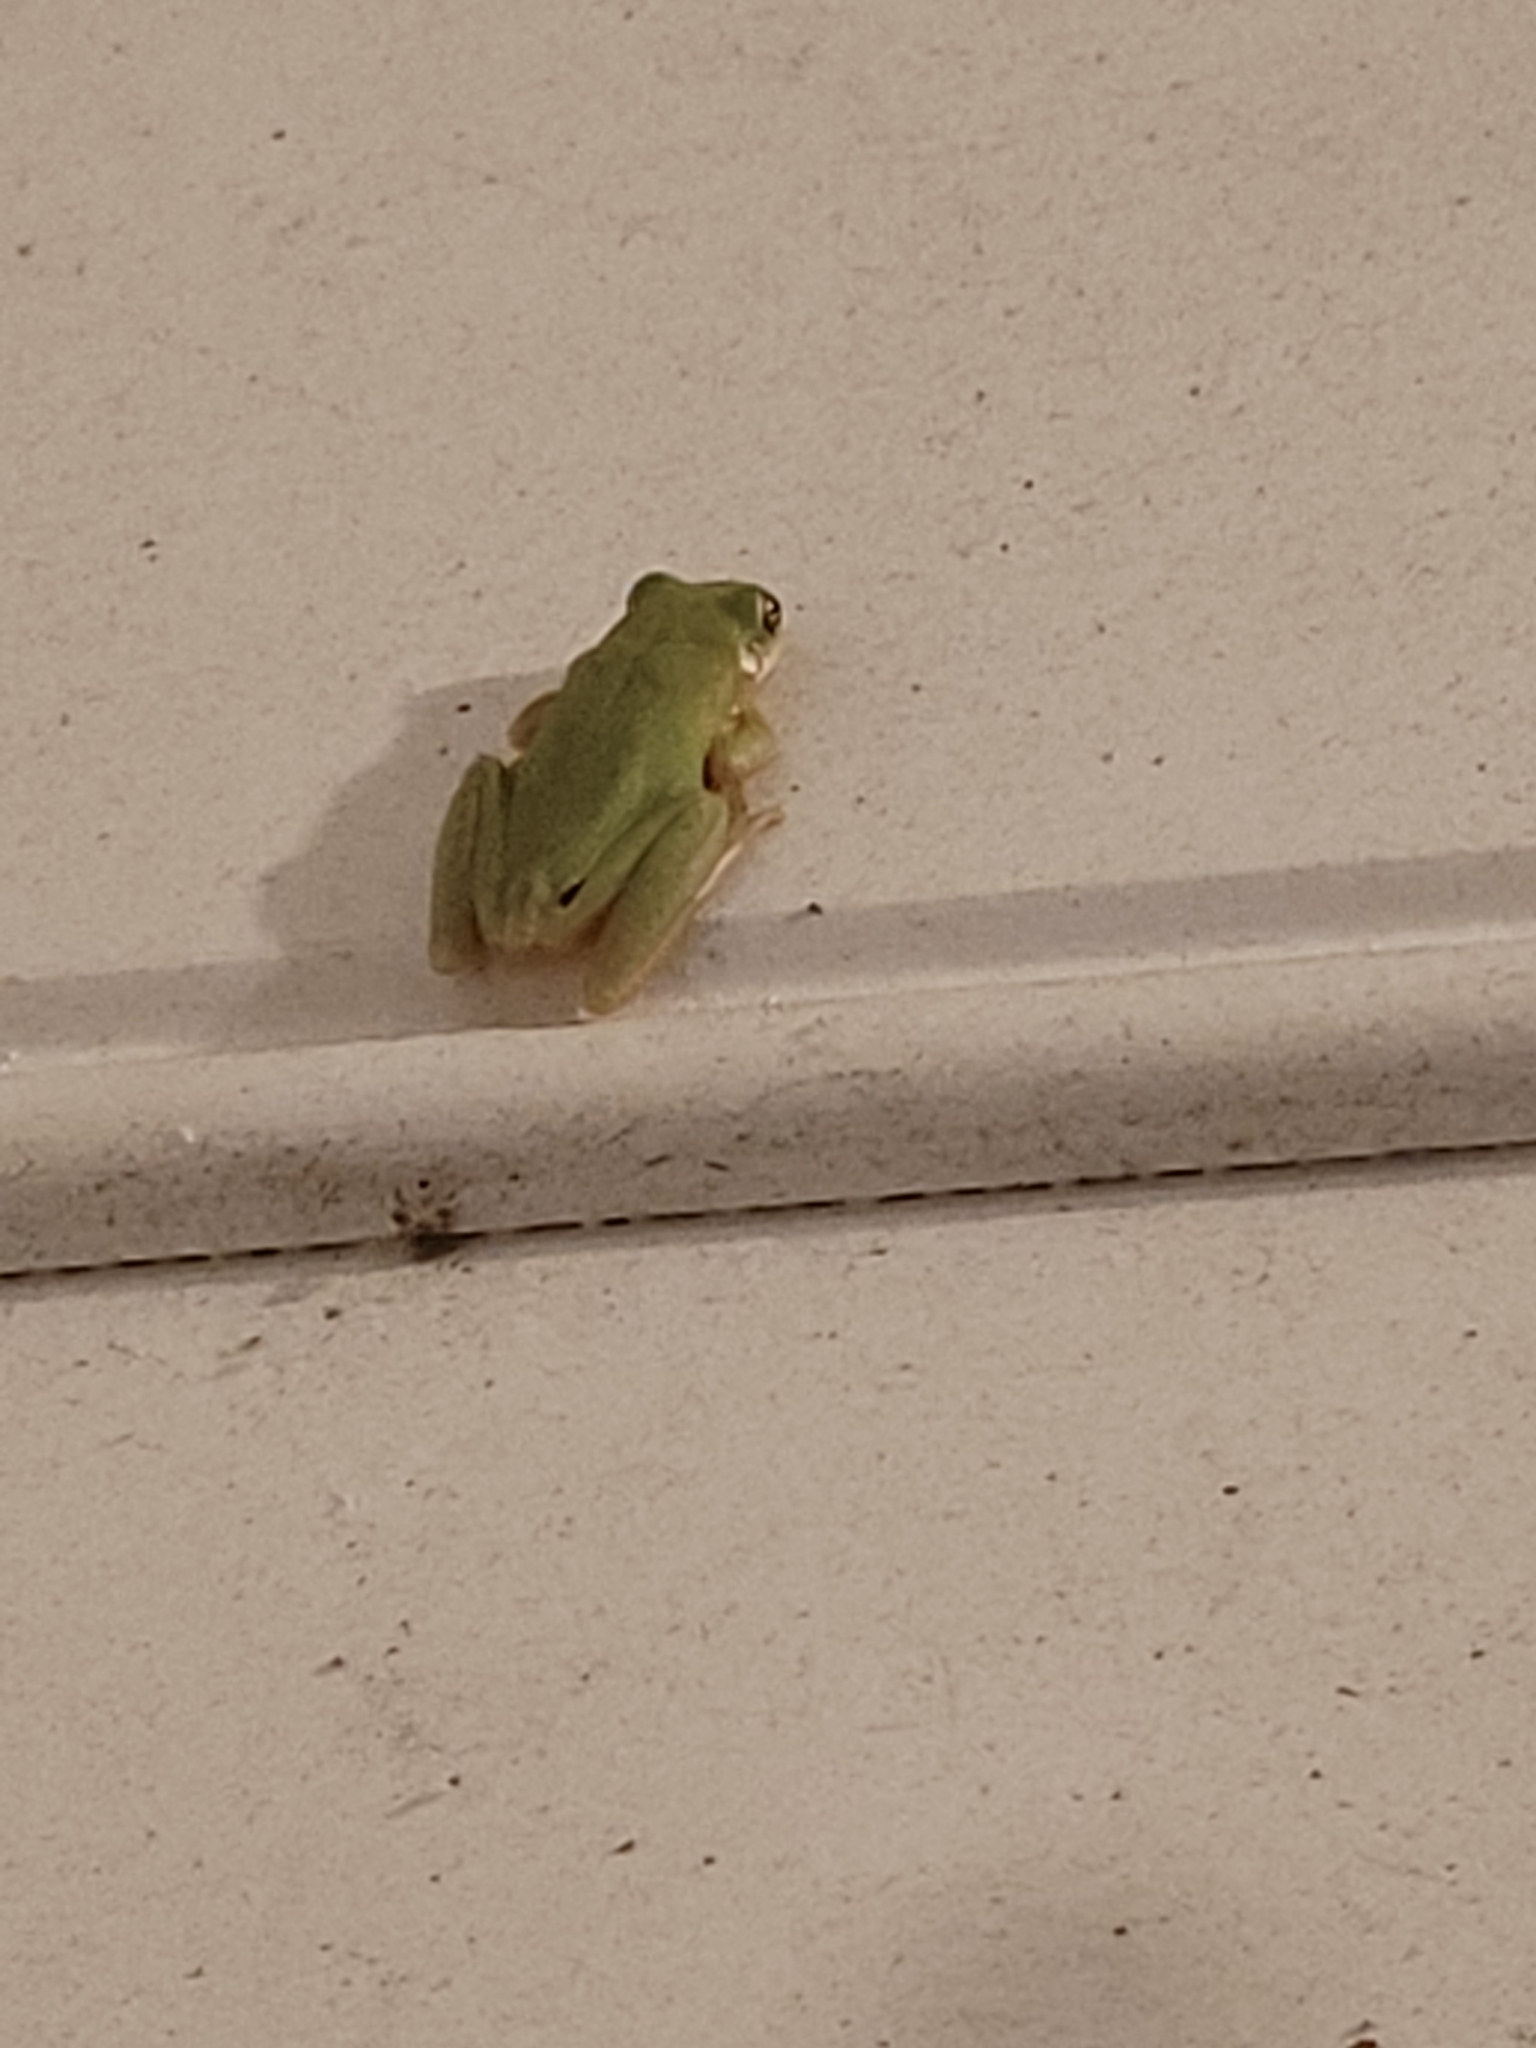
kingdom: Animalia
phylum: Chordata
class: Amphibia
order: Anura
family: Hylidae
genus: Dryophytes
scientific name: Dryophytes squirellus
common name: Squirrel treefrog
